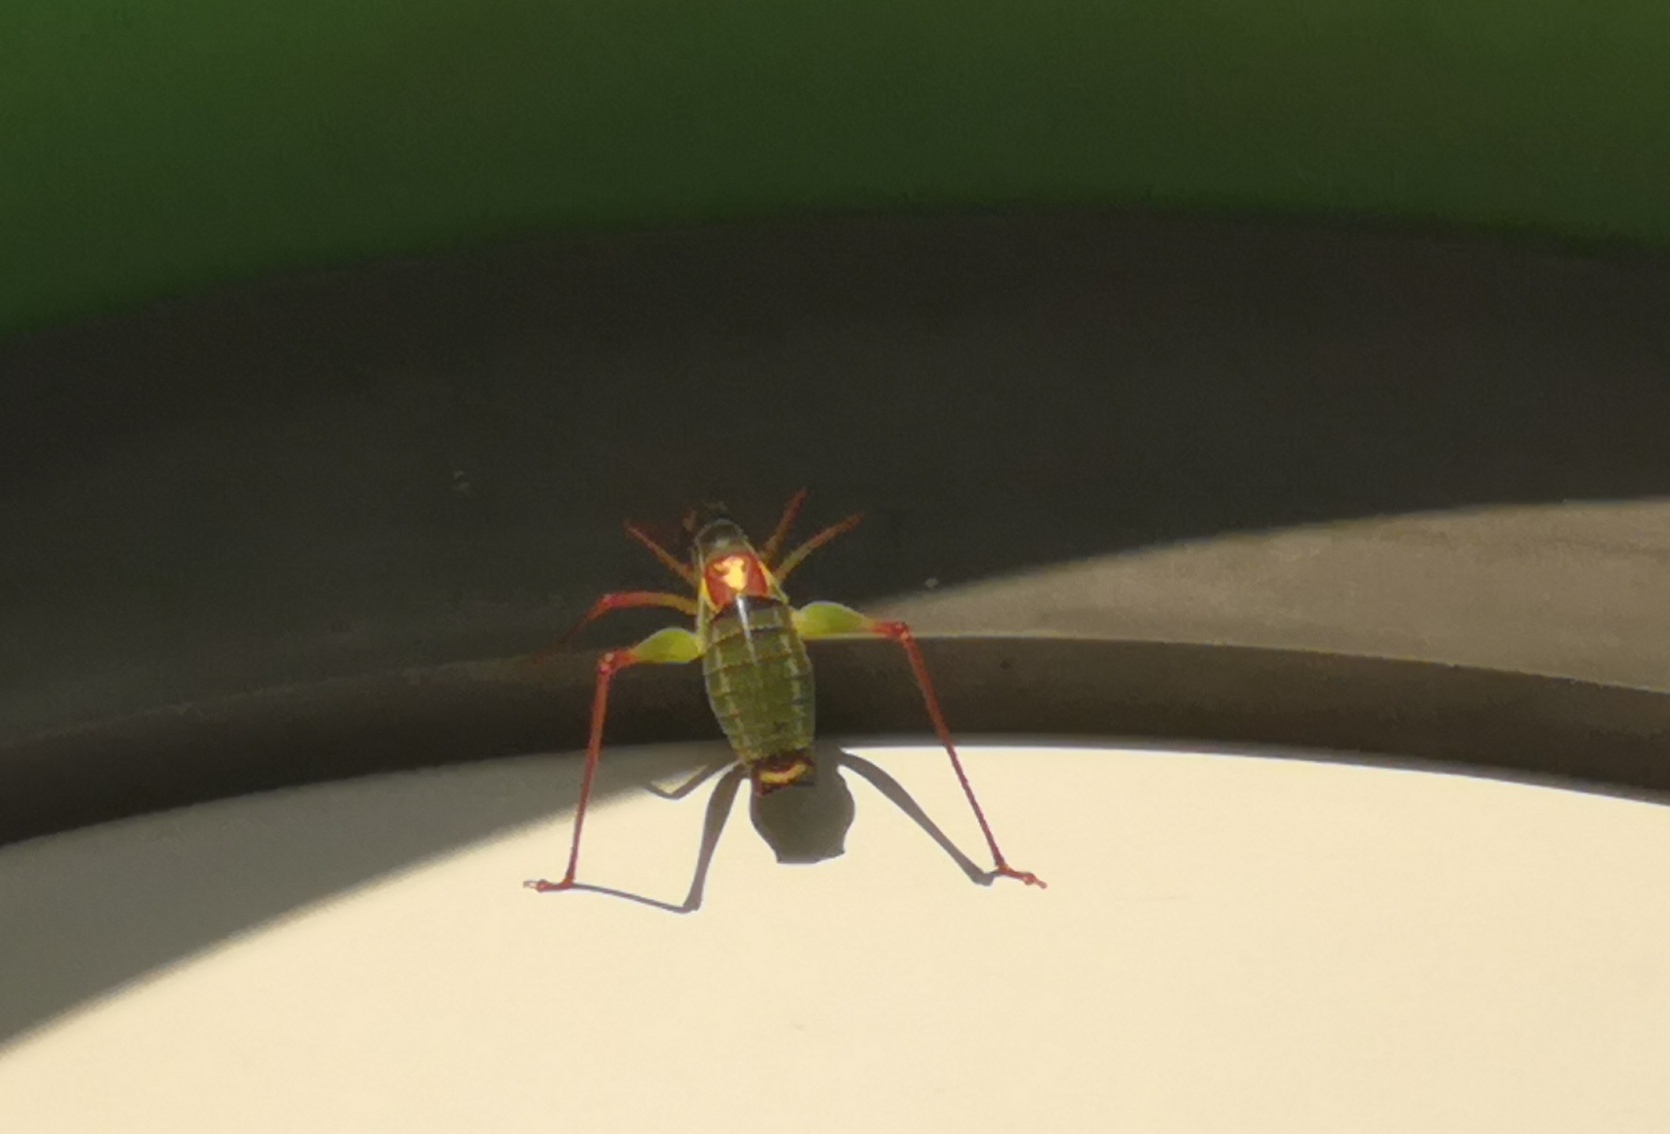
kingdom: Animalia
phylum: Arthropoda
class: Insecta
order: Orthoptera
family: Tettigoniidae
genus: Barbitistes
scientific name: Barbitistes yersini
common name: Balkan saw bush-cricket
